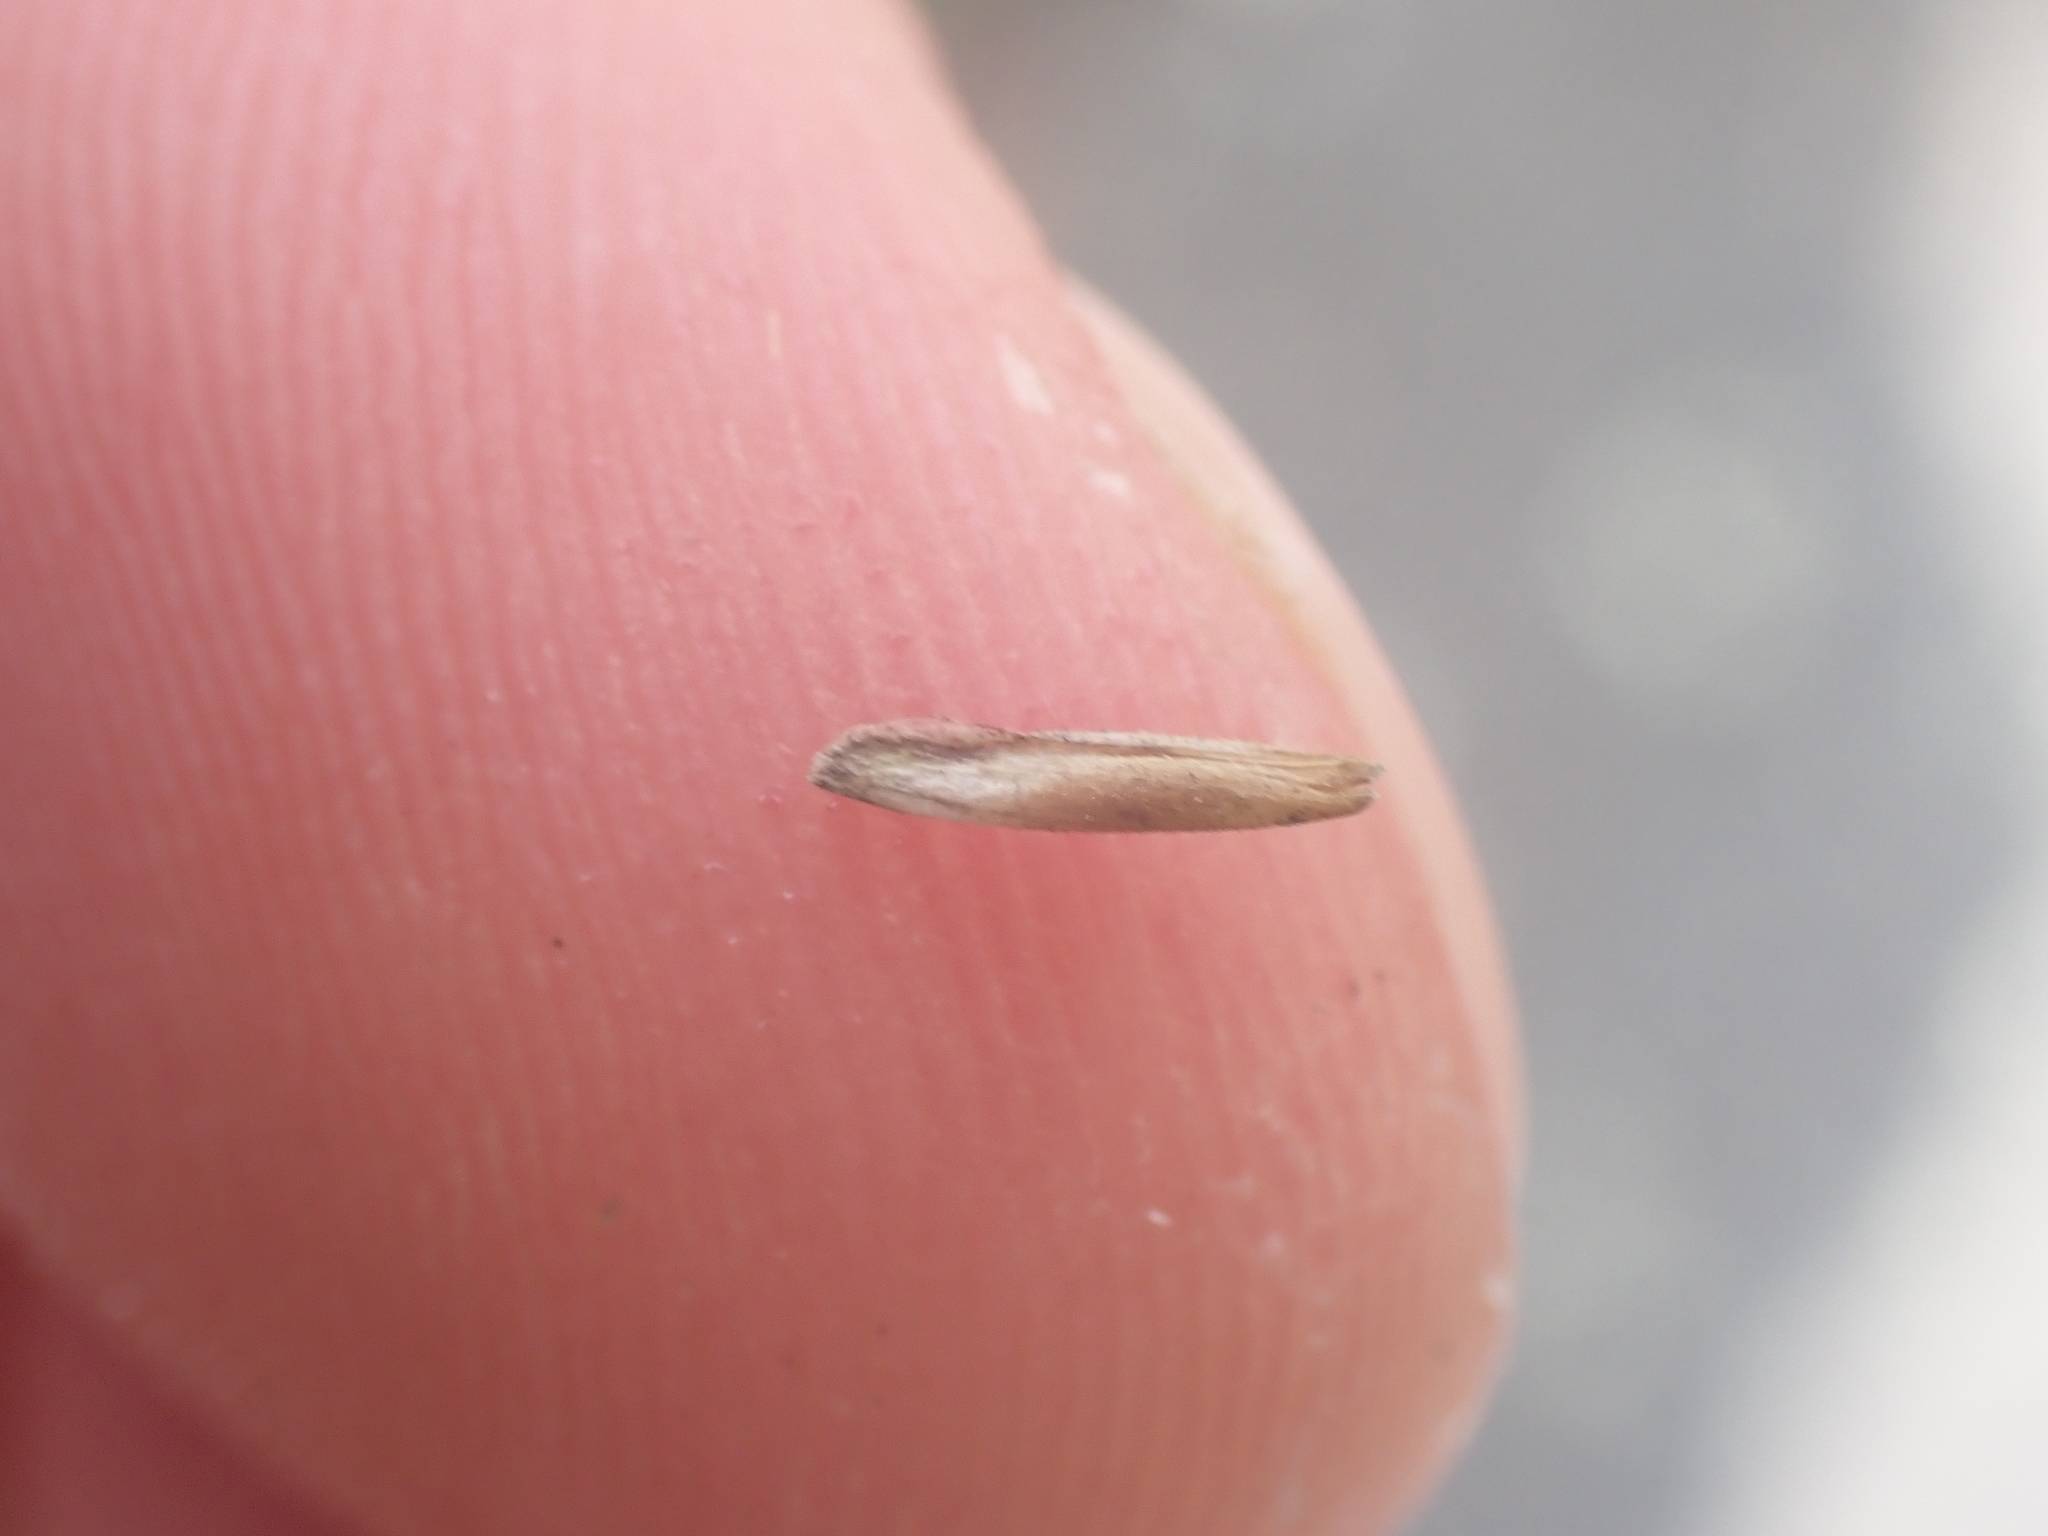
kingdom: Plantae
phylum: Tracheophyta
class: Liliopsida
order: Poales
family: Poaceae
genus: Avena
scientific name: Avena sterilis
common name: Animated oat
